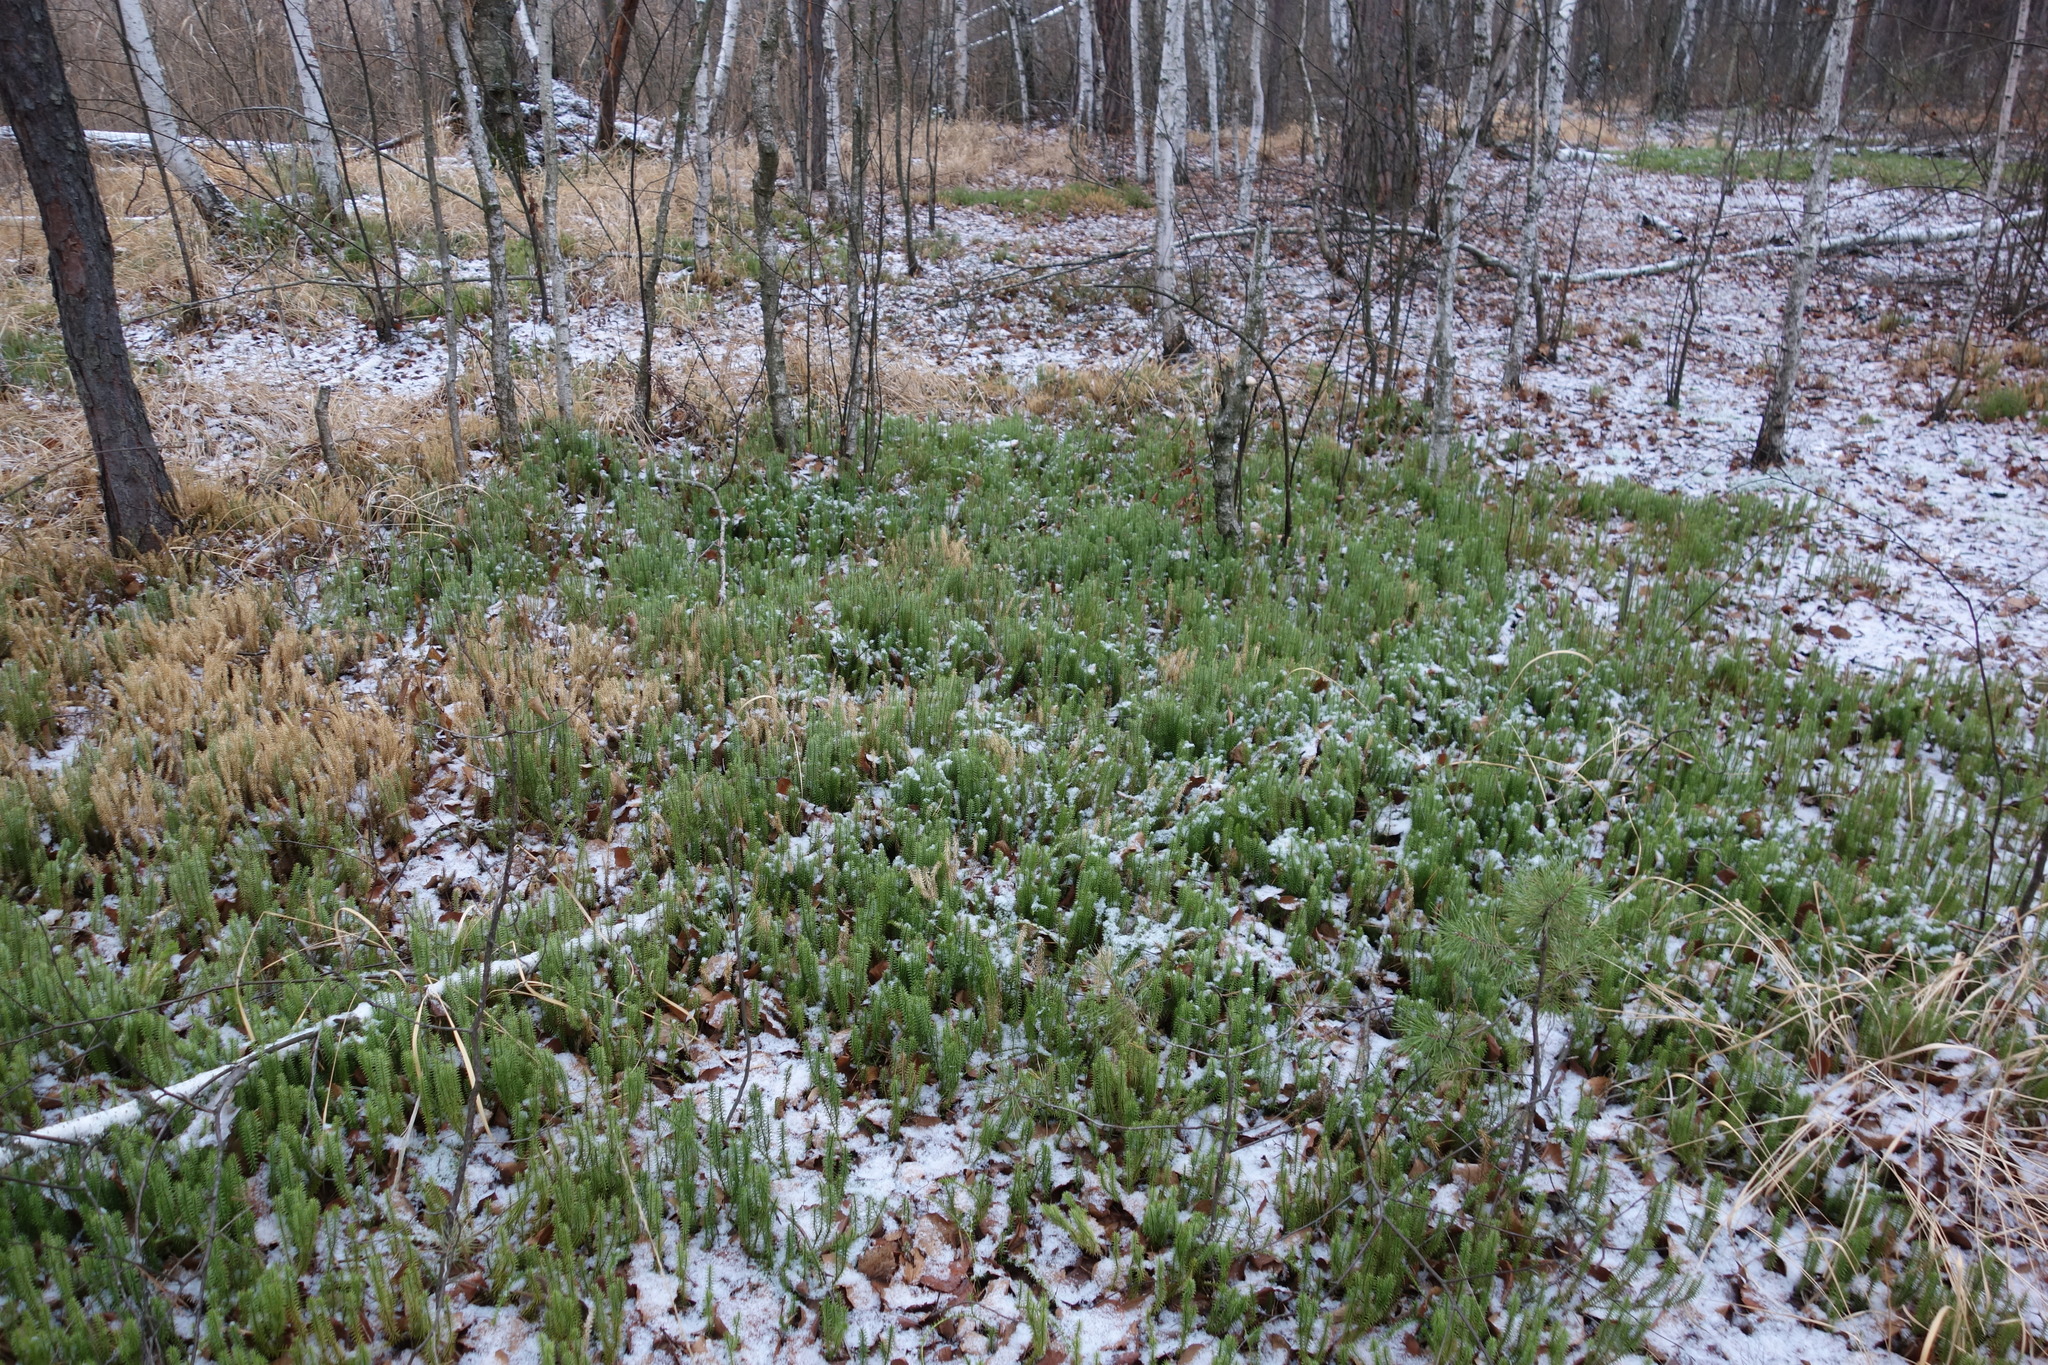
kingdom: Plantae
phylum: Tracheophyta
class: Lycopodiopsida
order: Lycopodiales
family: Lycopodiaceae
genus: Spinulum
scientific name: Spinulum annotinum
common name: Interrupted club-moss
